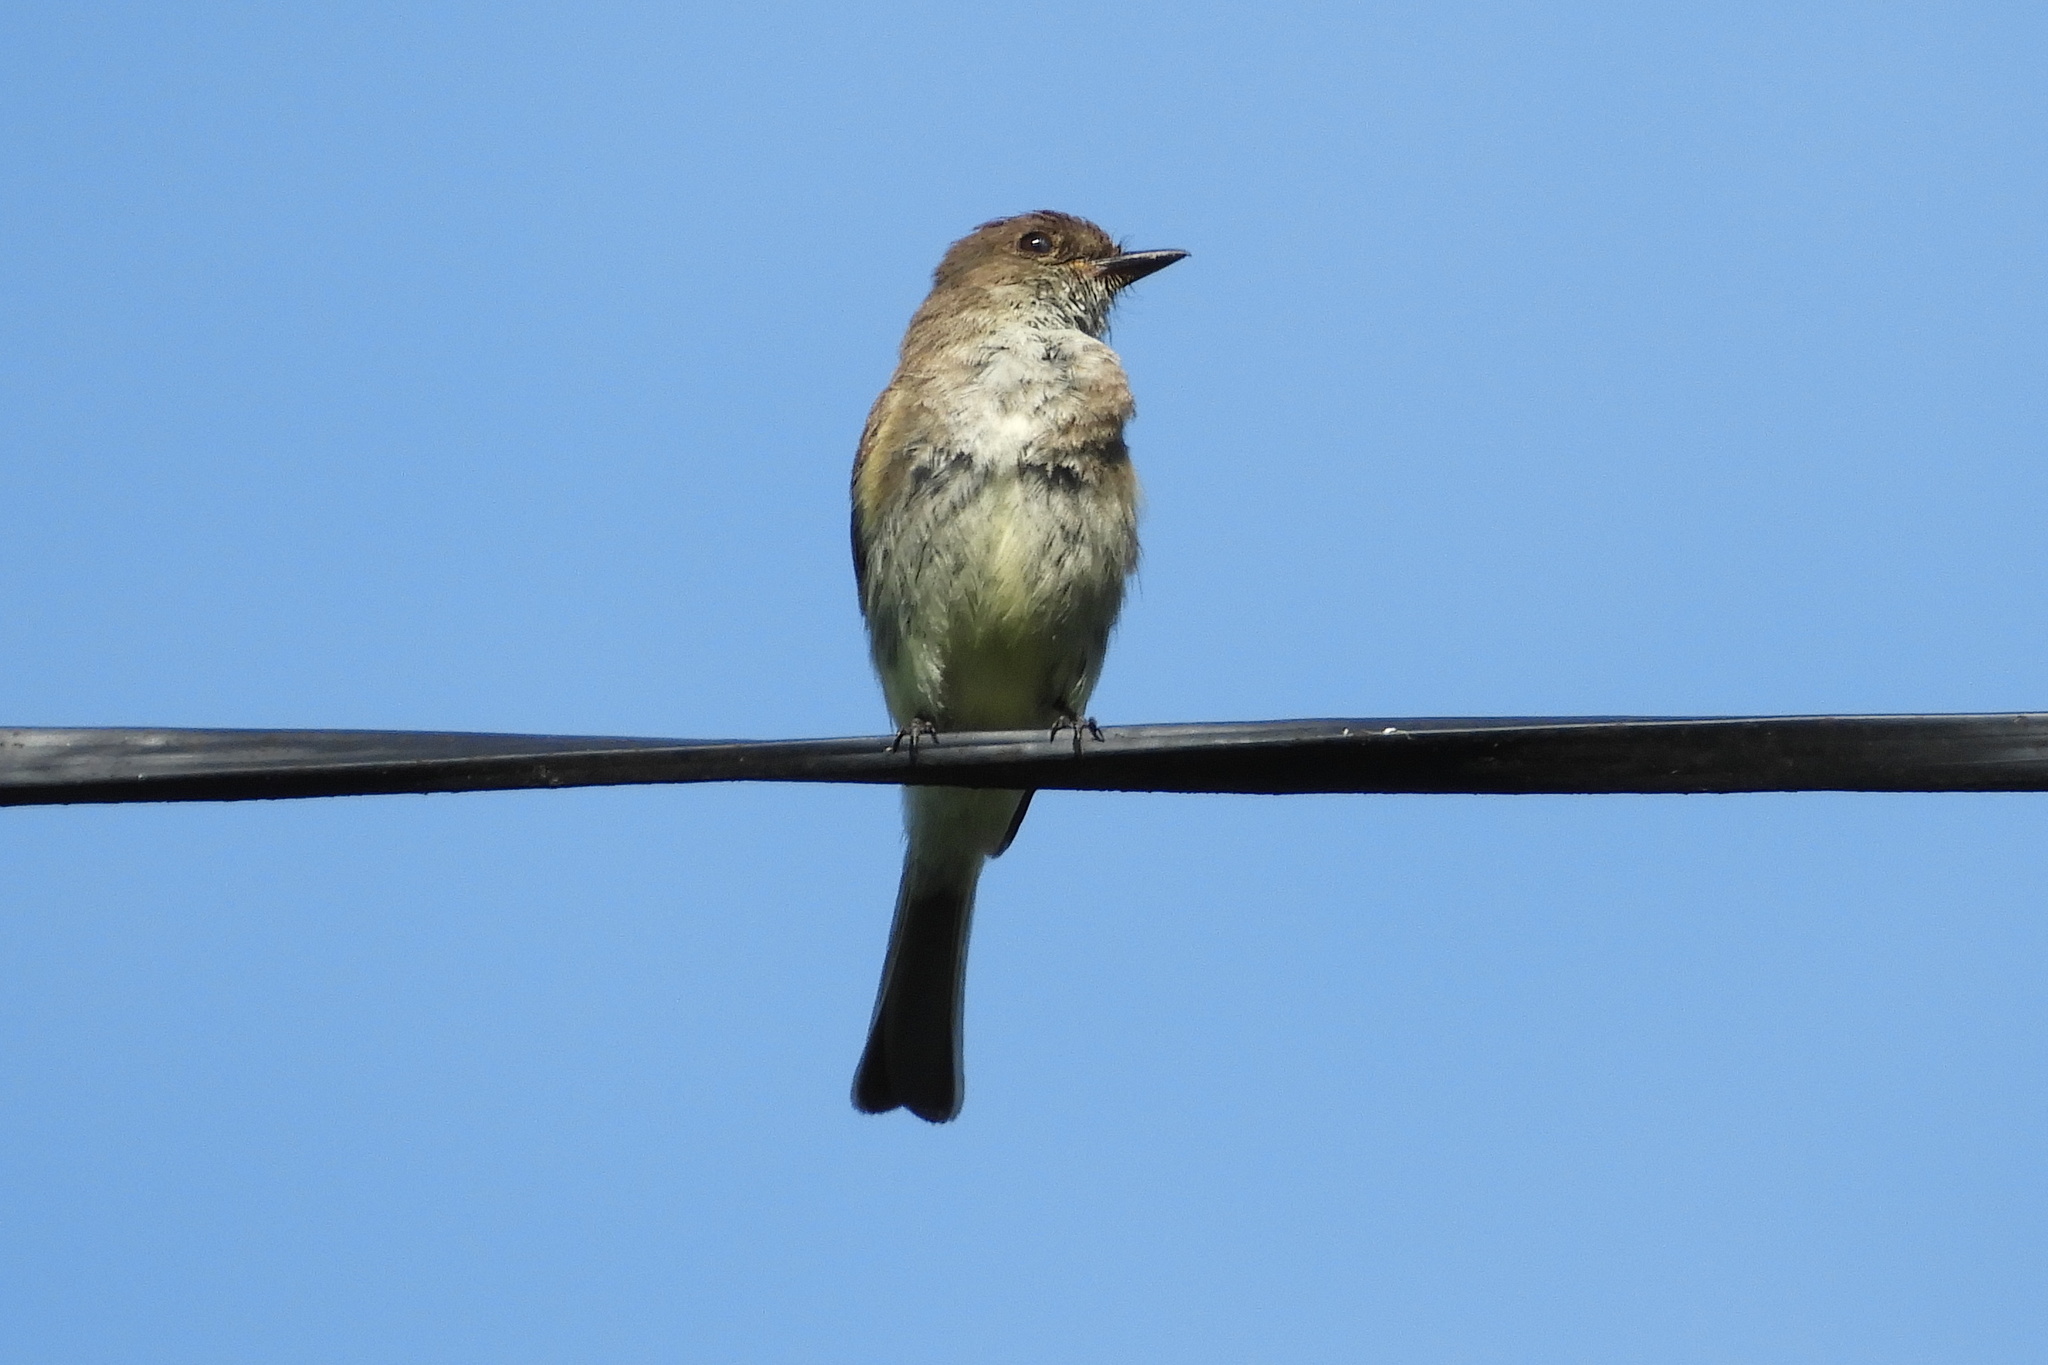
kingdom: Animalia
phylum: Chordata
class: Aves
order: Passeriformes
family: Tyrannidae
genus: Sayornis
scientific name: Sayornis phoebe
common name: Eastern phoebe
